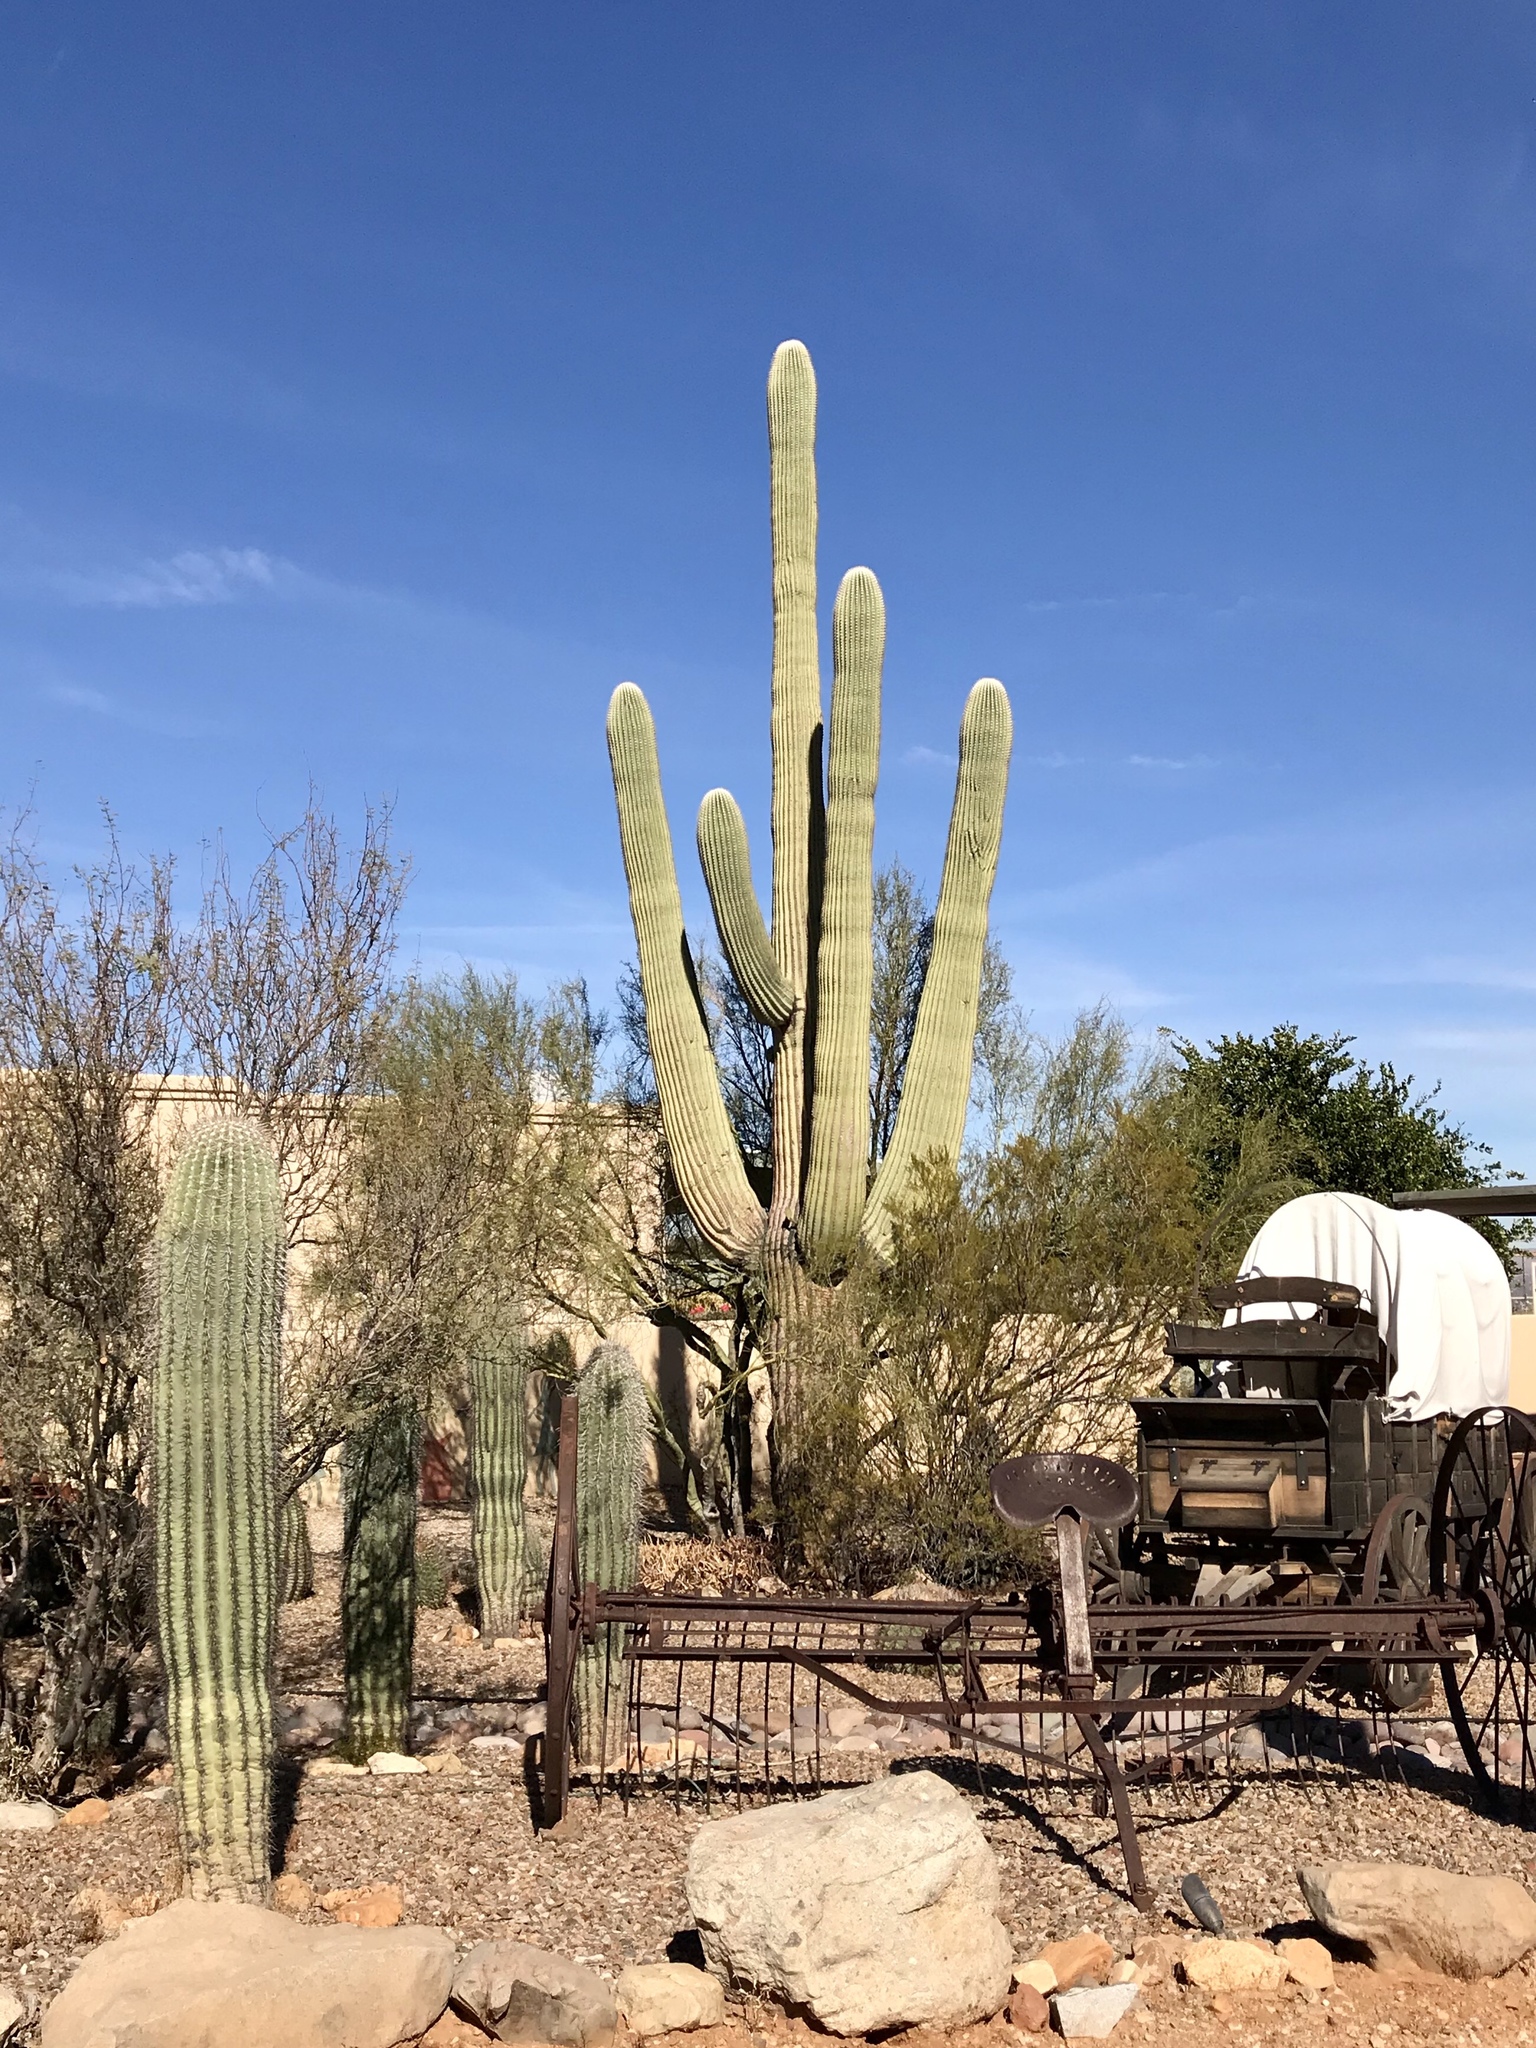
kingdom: Plantae
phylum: Tracheophyta
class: Magnoliopsida
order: Caryophyllales
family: Cactaceae
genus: Carnegiea
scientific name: Carnegiea gigantea
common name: Saguaro
